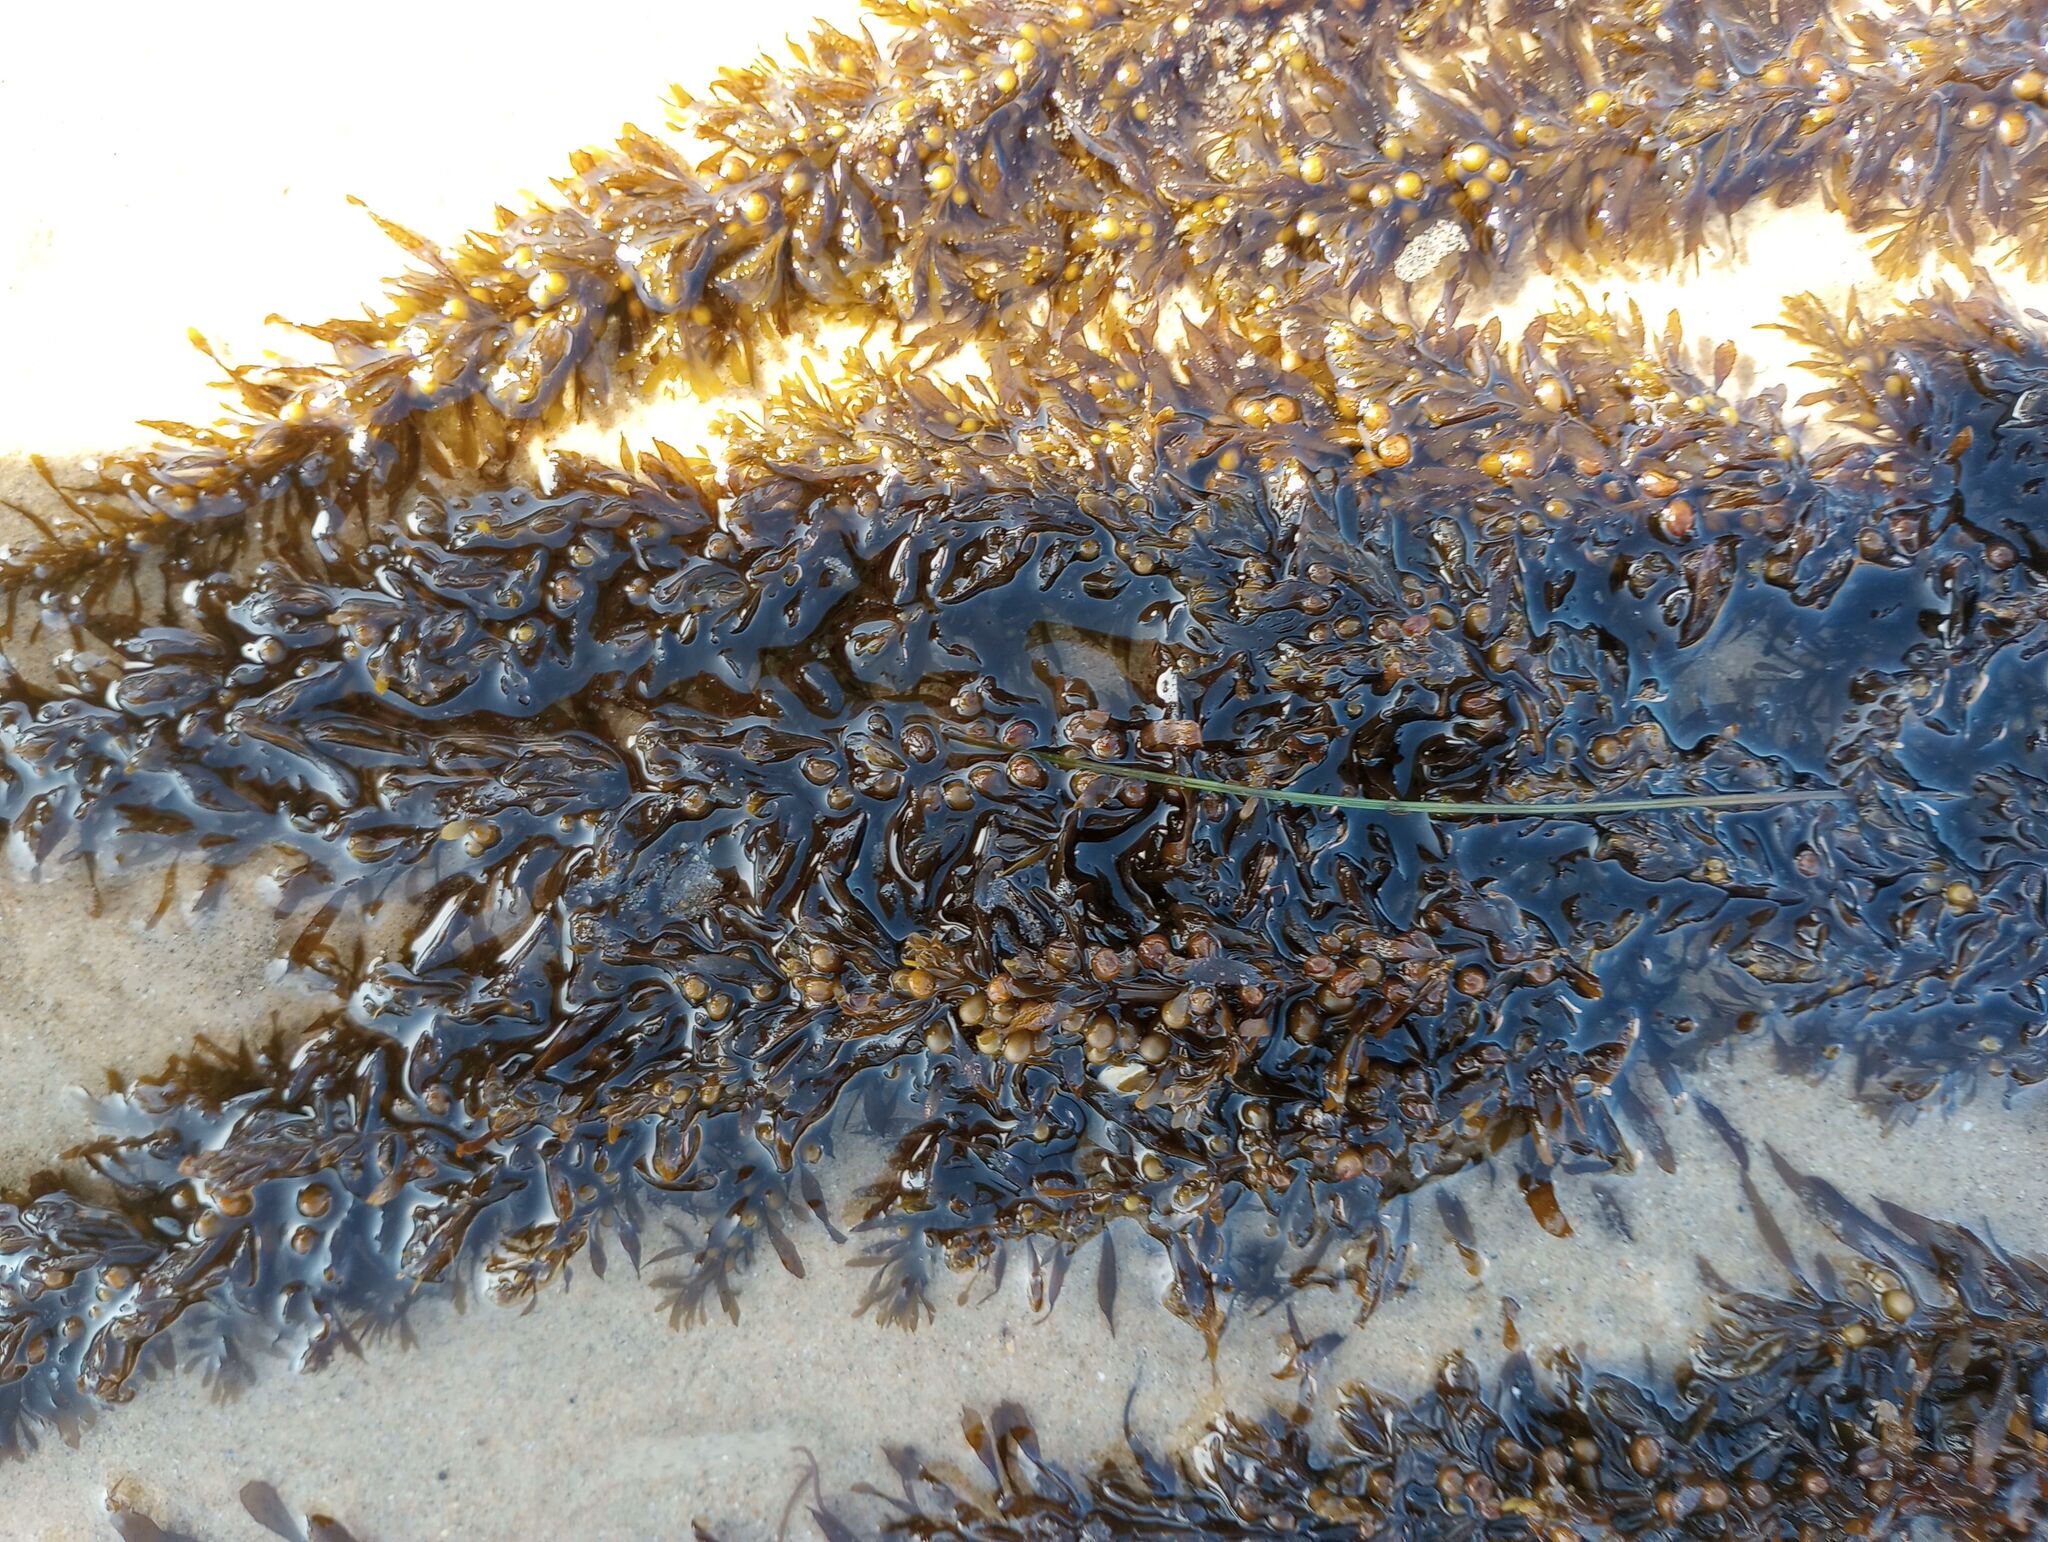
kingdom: Chromista
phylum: Ochrophyta
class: Phaeophyceae
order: Fucales
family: Sargassaceae
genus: Sargassum
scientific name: Sargassum muticum
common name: Japweed
